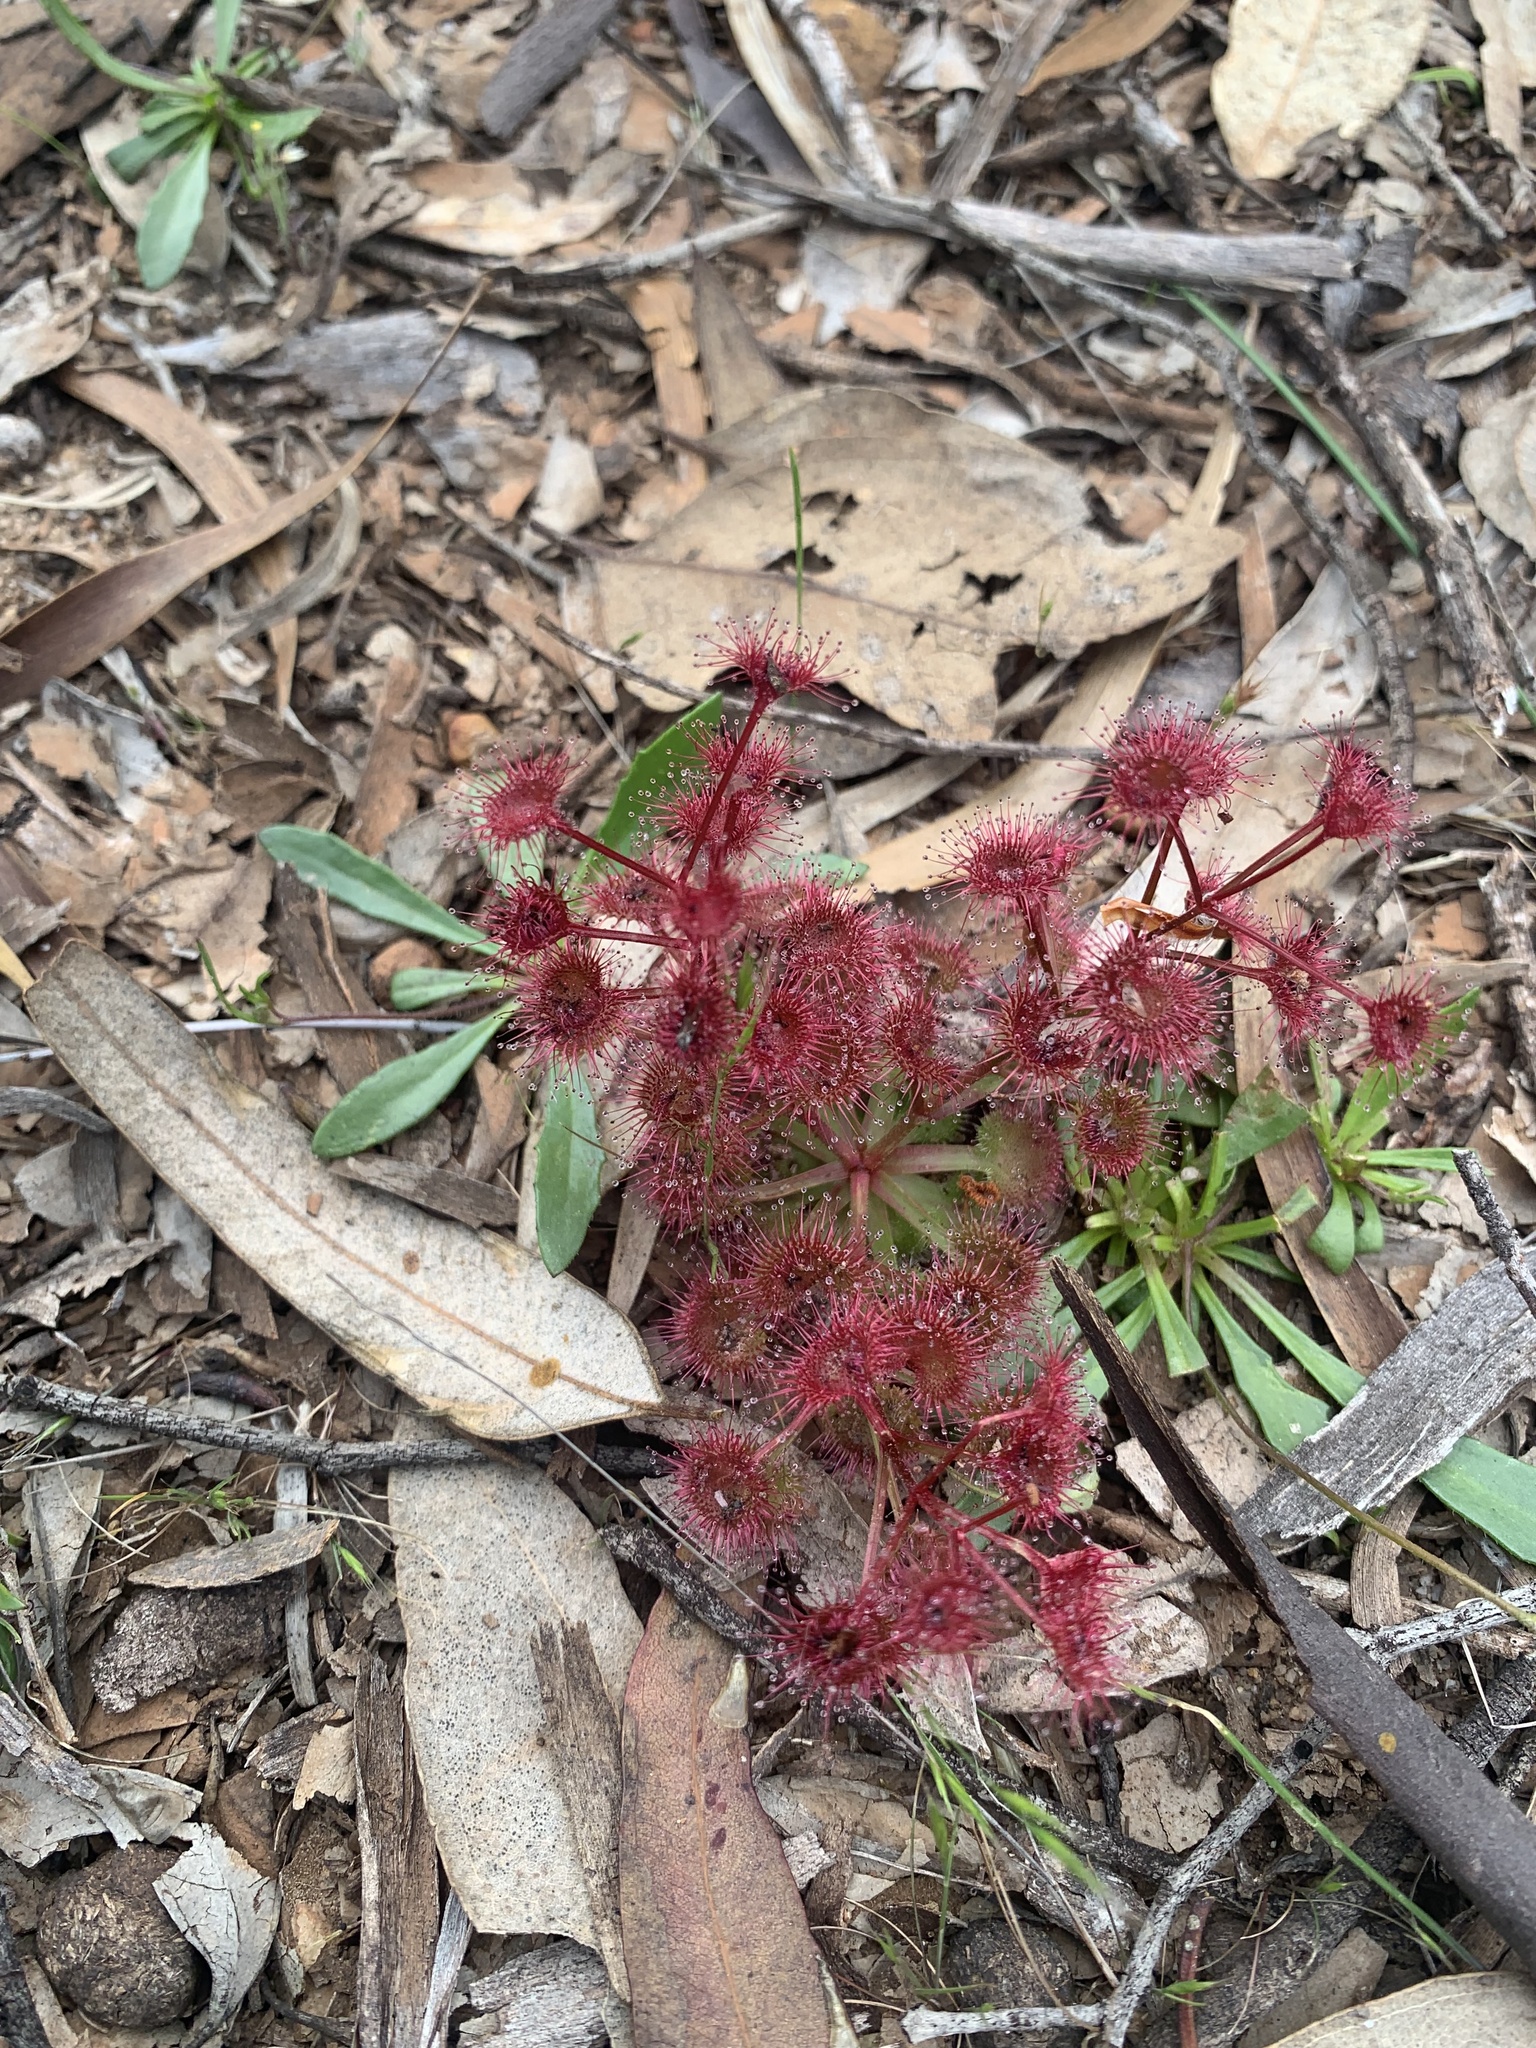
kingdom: Plantae
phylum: Tracheophyta
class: Magnoliopsida
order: Caryophyllales
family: Droseraceae
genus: Drosera
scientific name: Drosera stolonifera
